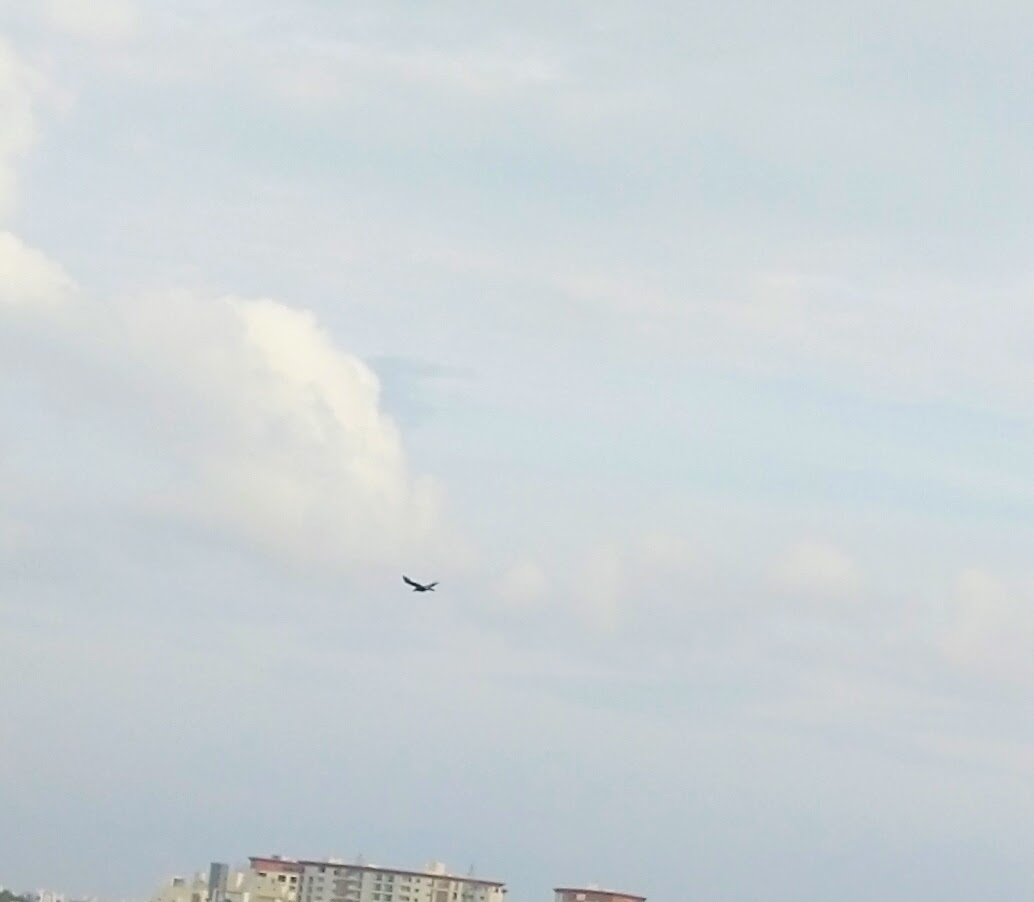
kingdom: Animalia
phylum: Chordata
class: Aves
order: Passeriformes
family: Corvidae
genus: Corvus
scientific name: Corvus macrorhynchos
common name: Large-billed crow
